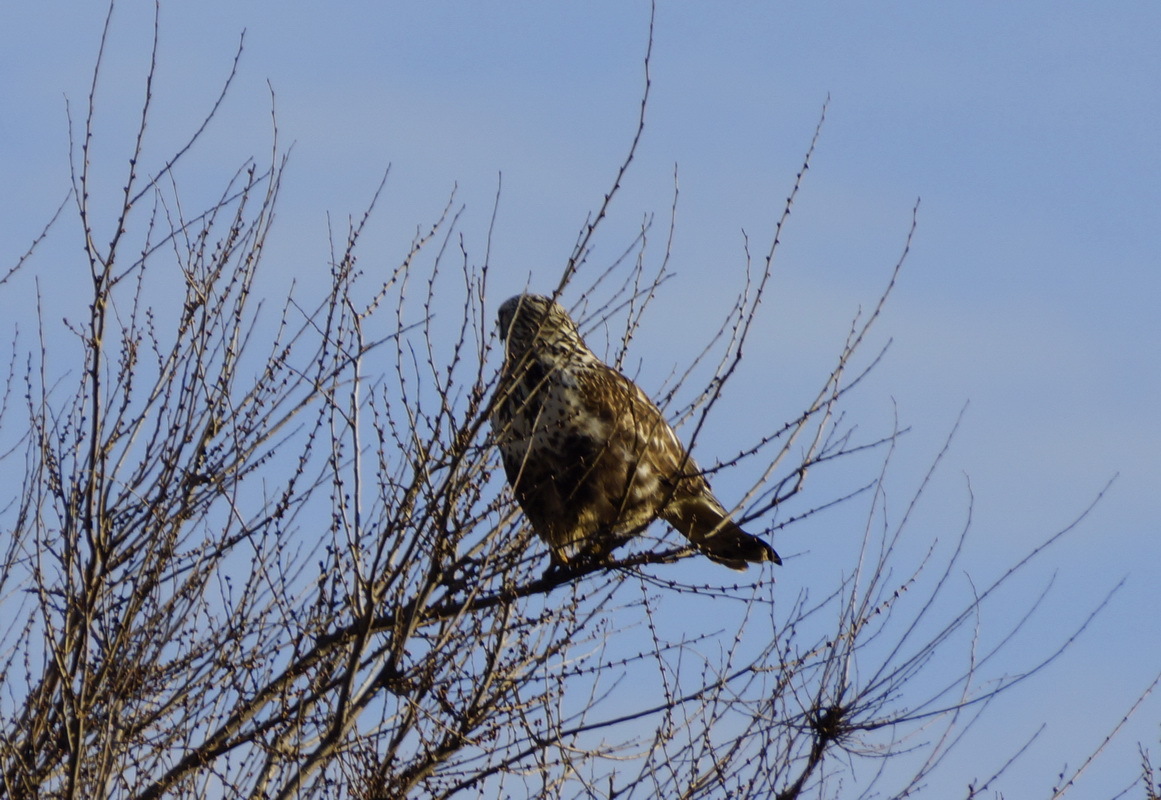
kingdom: Animalia
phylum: Chordata
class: Aves
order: Accipitriformes
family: Accipitridae
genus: Buteo
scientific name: Buteo lagopus
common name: Rough-legged buzzard
